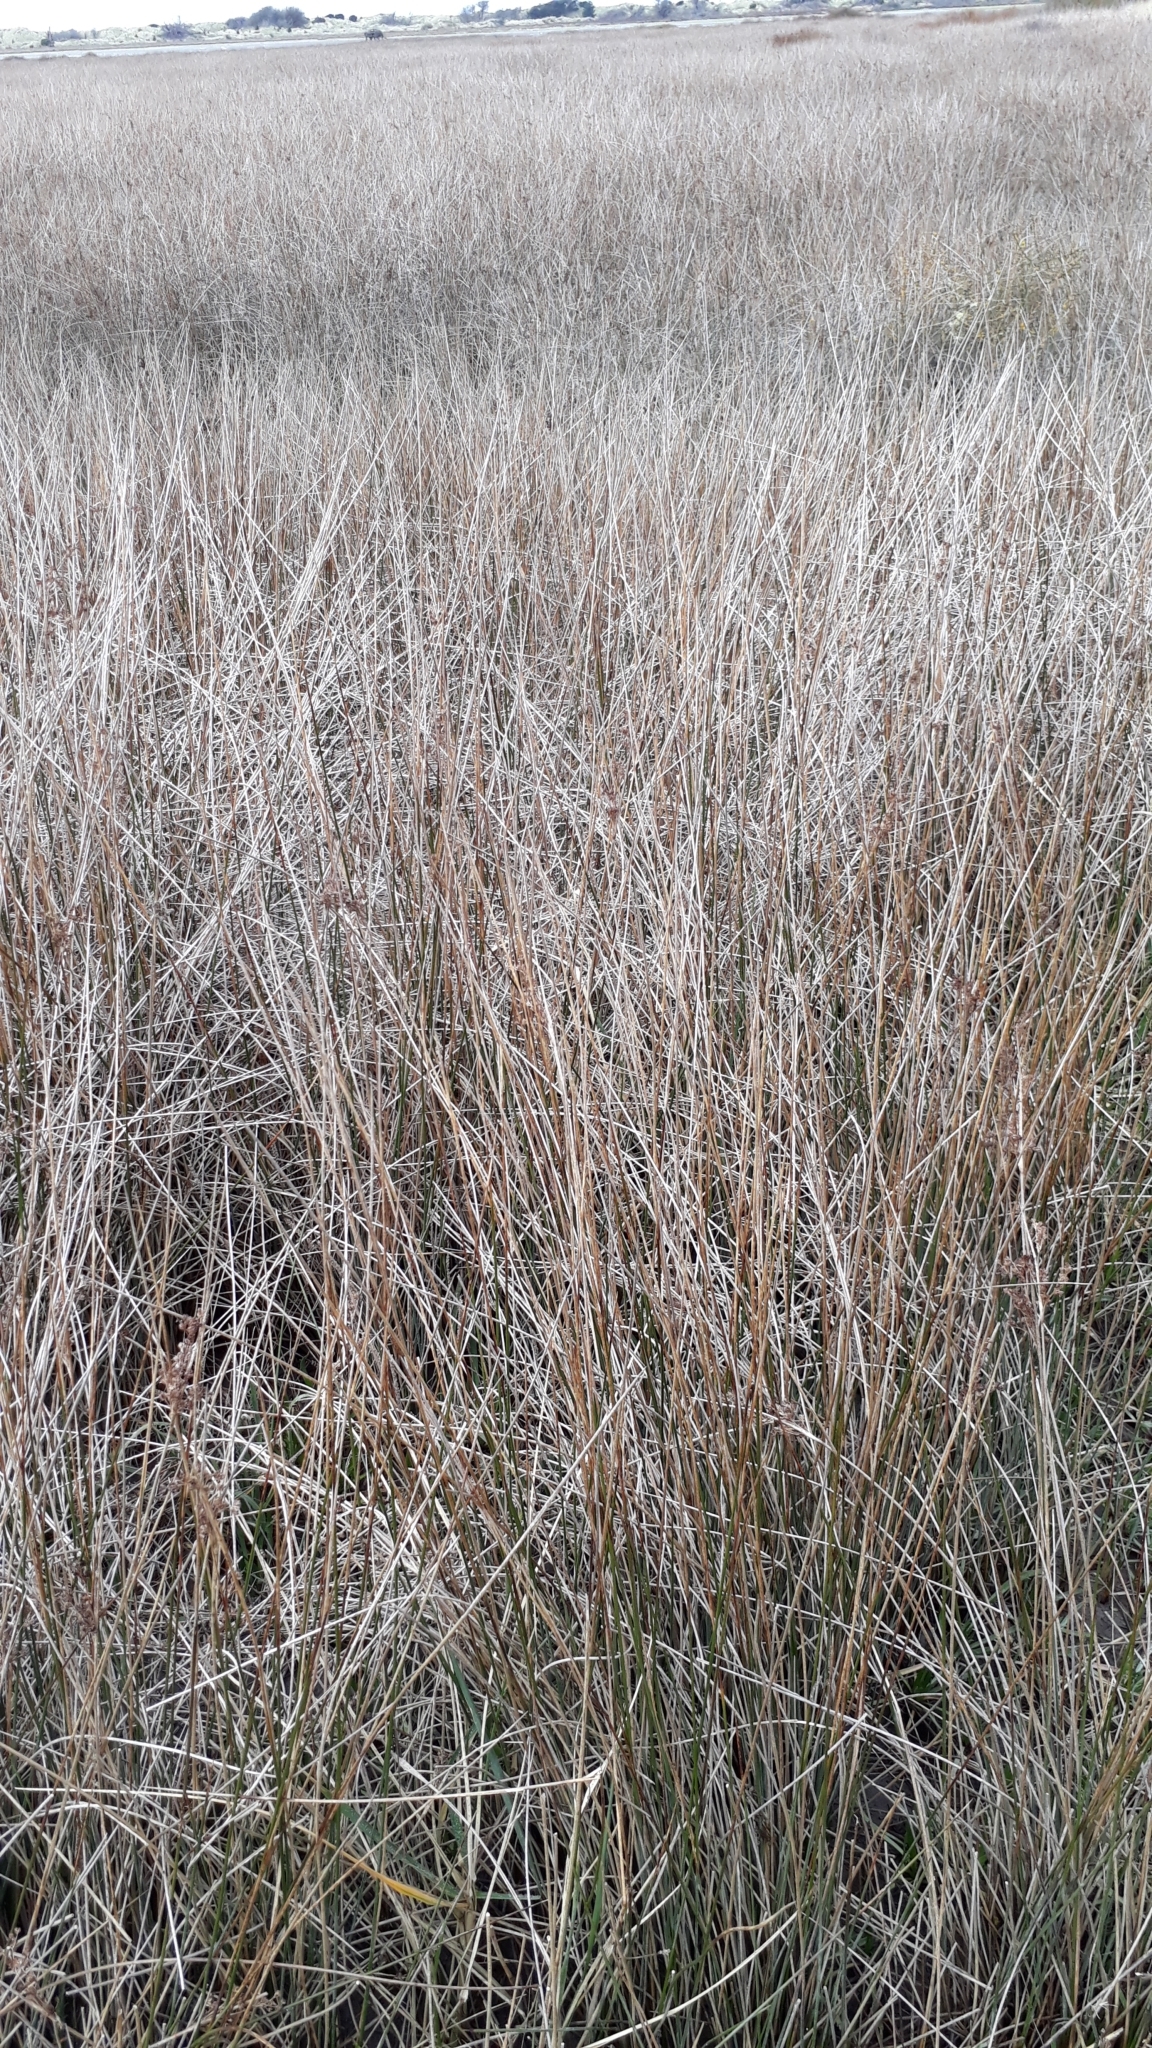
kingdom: Plantae
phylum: Tracheophyta
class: Liliopsida
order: Poales
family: Juncaceae
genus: Juncus
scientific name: Juncus kraussii
